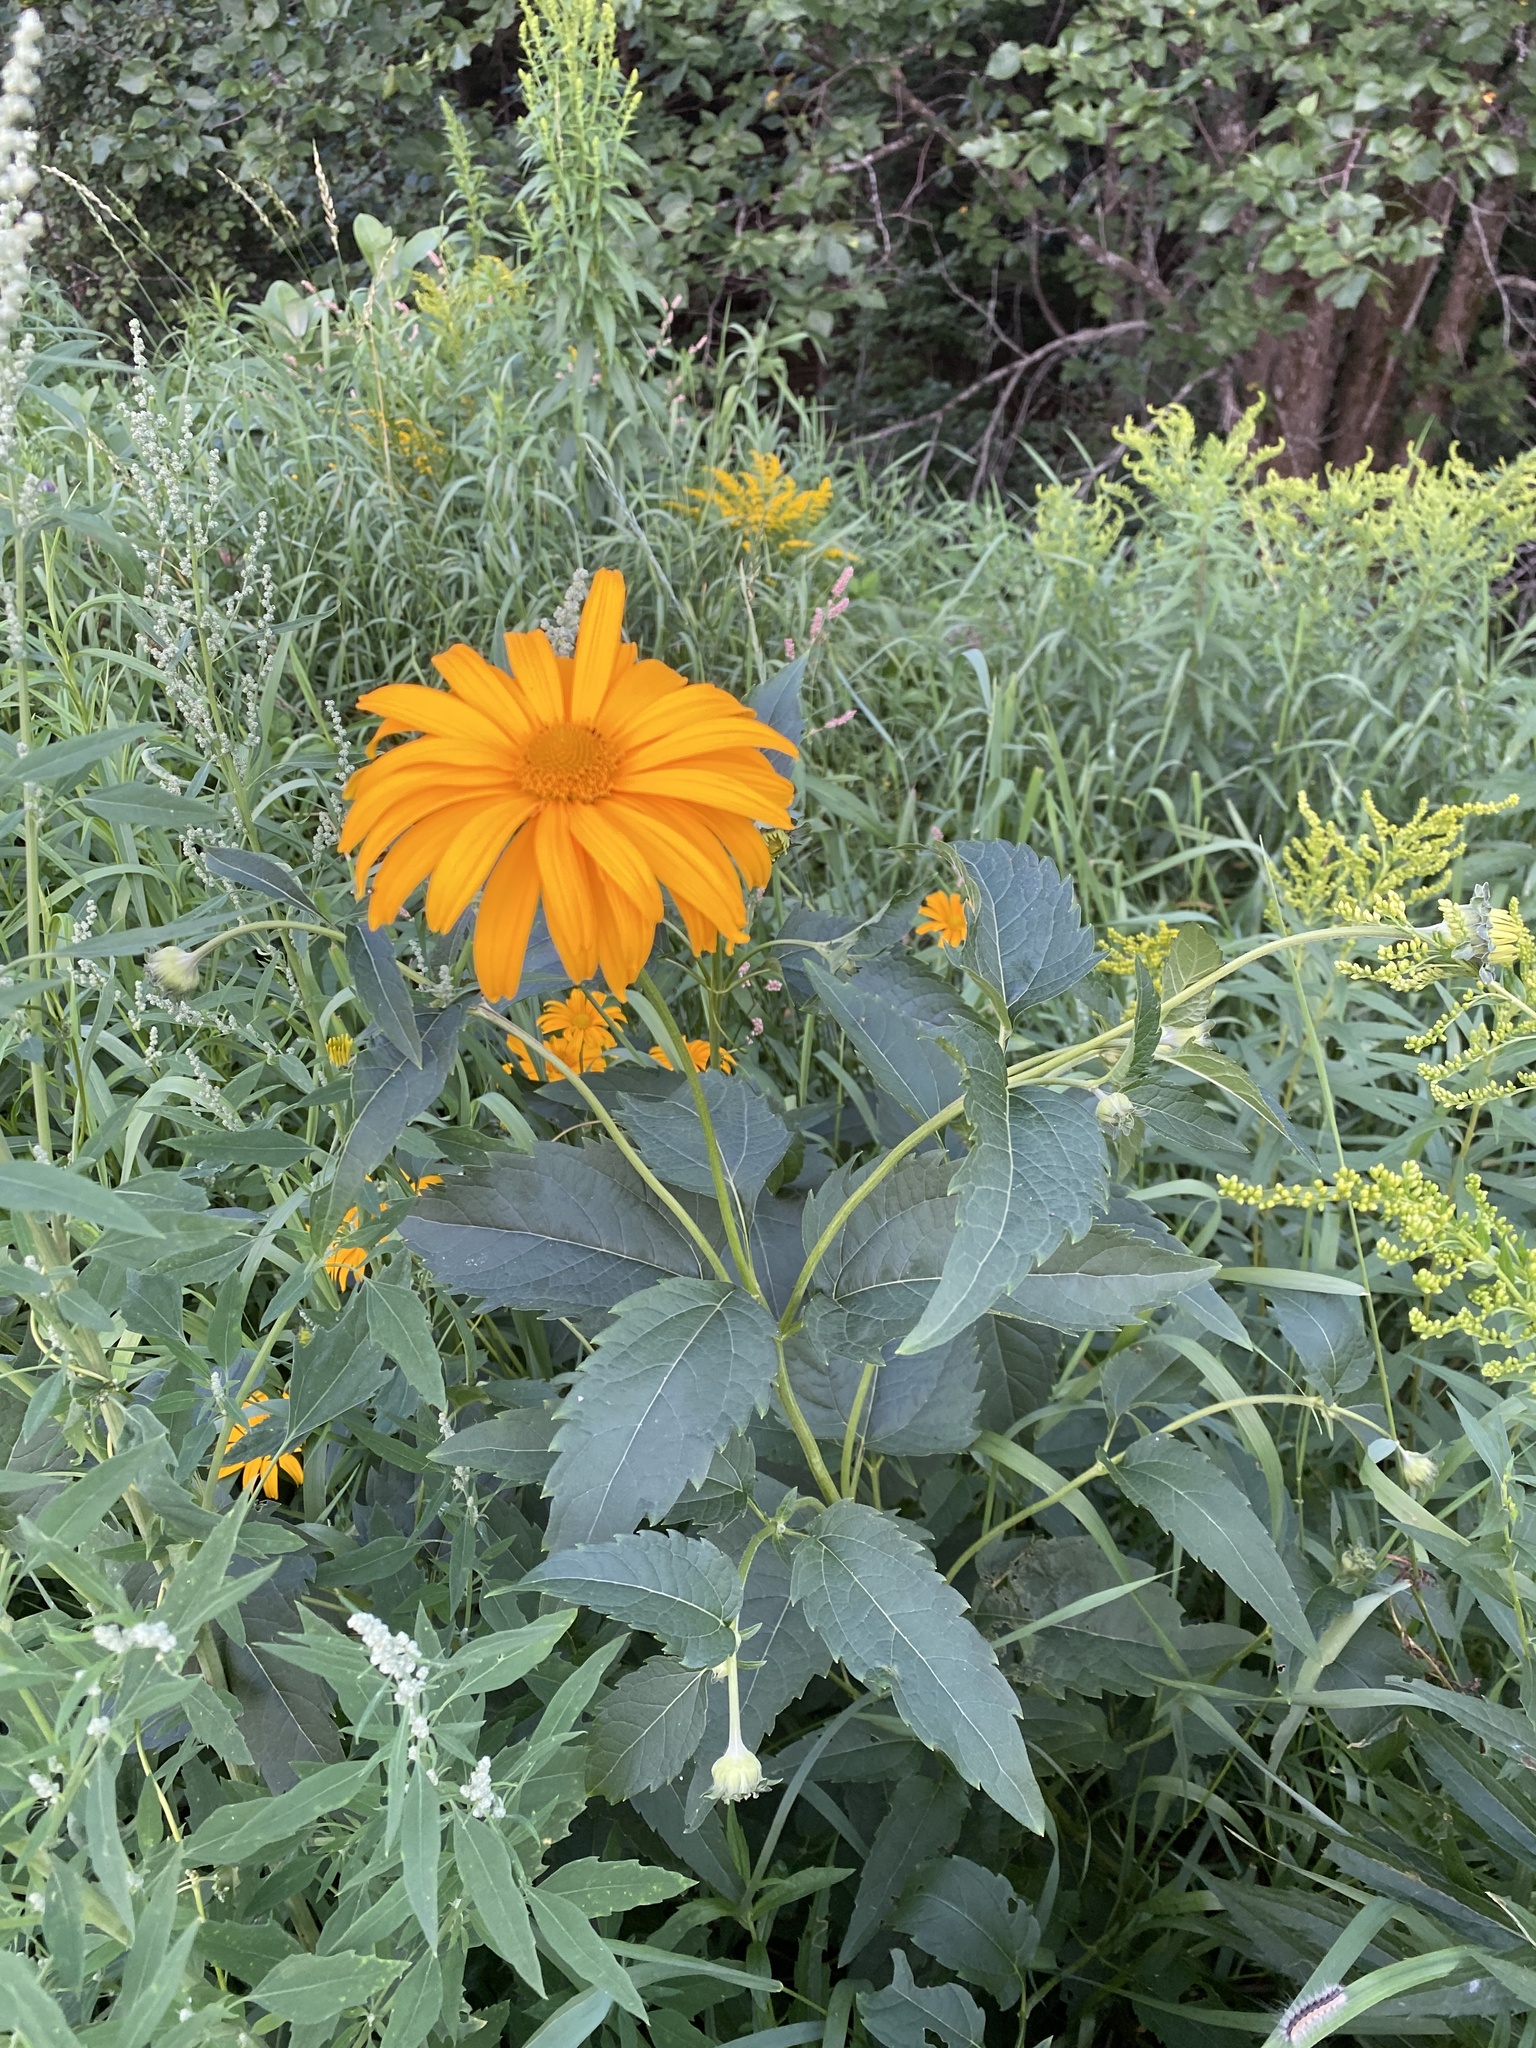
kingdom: Plantae
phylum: Tracheophyta
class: Magnoliopsida
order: Asterales
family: Asteraceae
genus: Heliopsis
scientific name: Heliopsis helianthoides
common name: False sunflower
